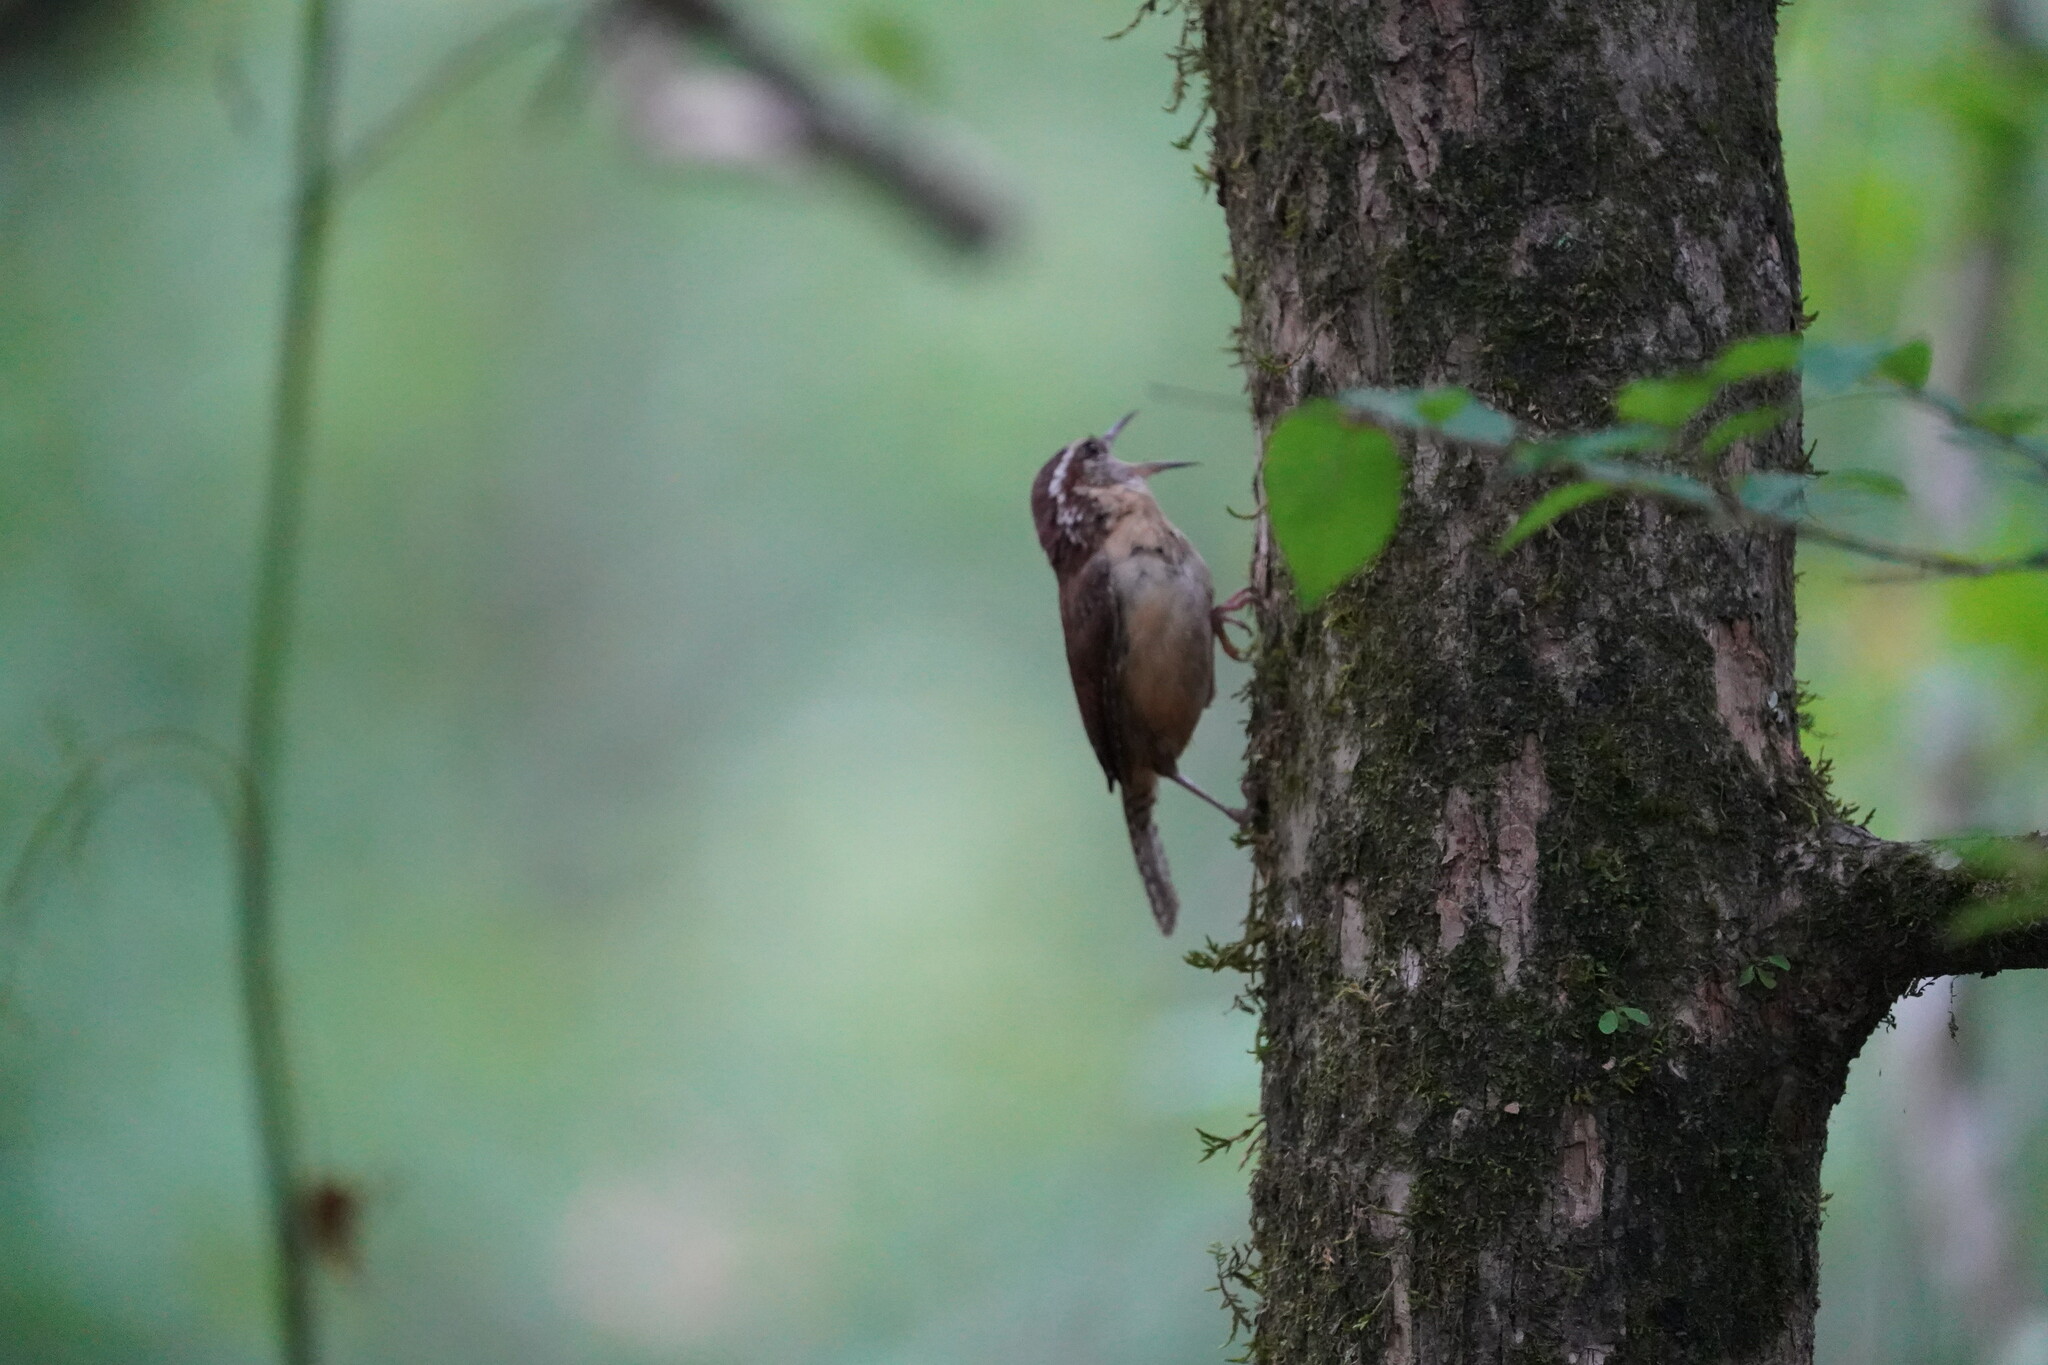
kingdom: Animalia
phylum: Chordata
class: Aves
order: Passeriformes
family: Troglodytidae
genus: Thryothorus
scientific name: Thryothorus ludovicianus
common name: Carolina wren
